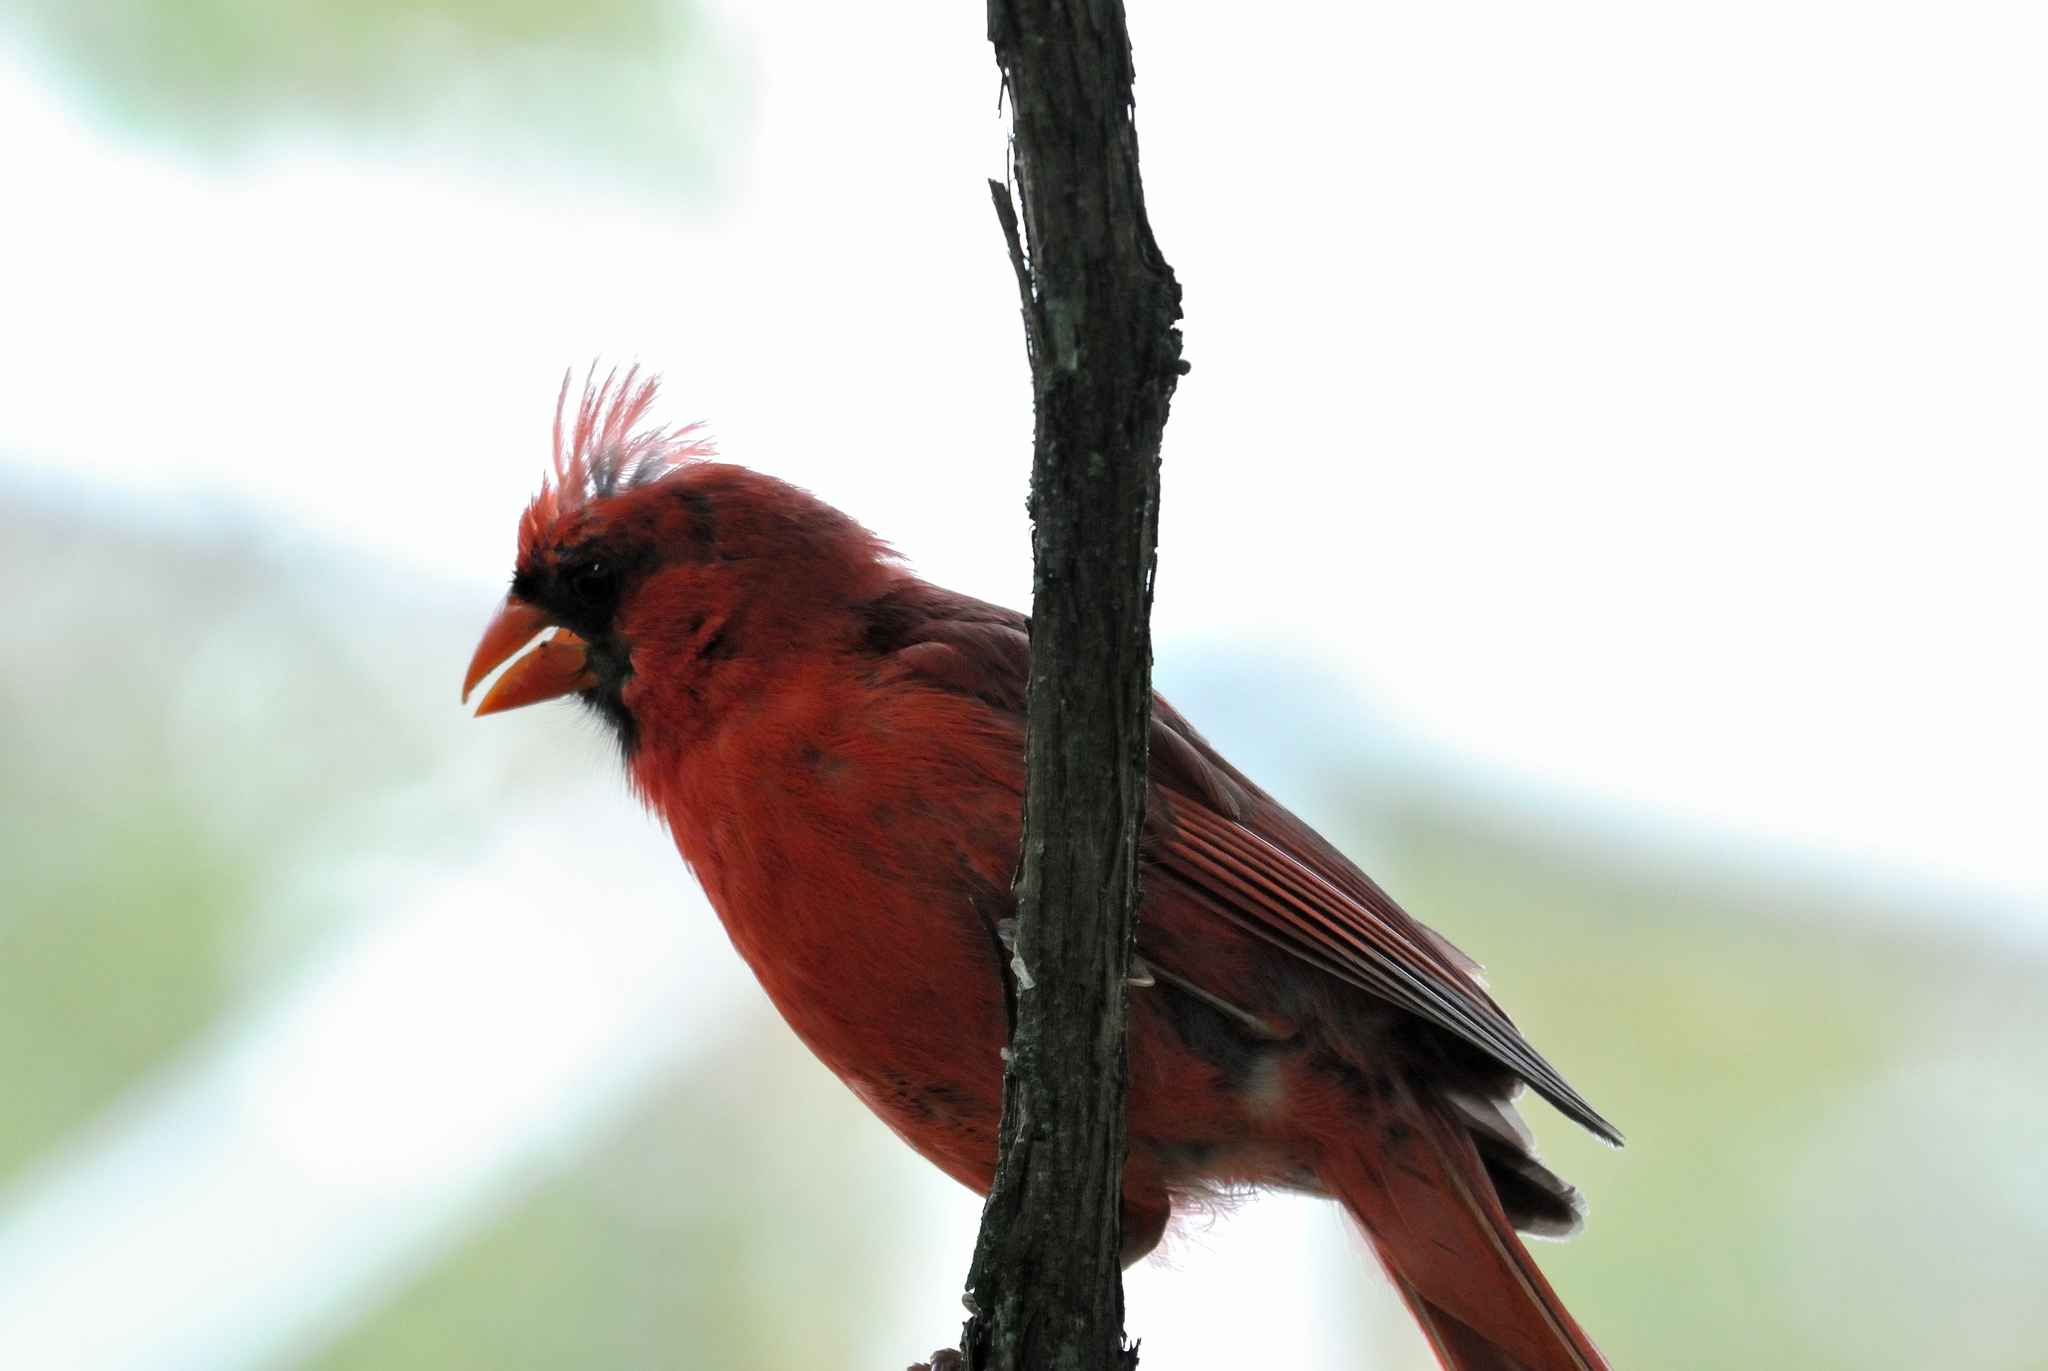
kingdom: Animalia
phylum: Chordata
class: Aves
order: Passeriformes
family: Cardinalidae
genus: Cardinalis
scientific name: Cardinalis cardinalis
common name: Northern cardinal
